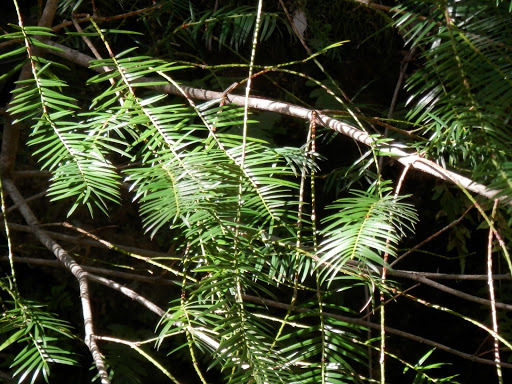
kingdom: Plantae
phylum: Tracheophyta
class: Pinopsida
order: Pinales
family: Taxaceae
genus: Torreya
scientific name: Torreya californica
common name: California torreya
